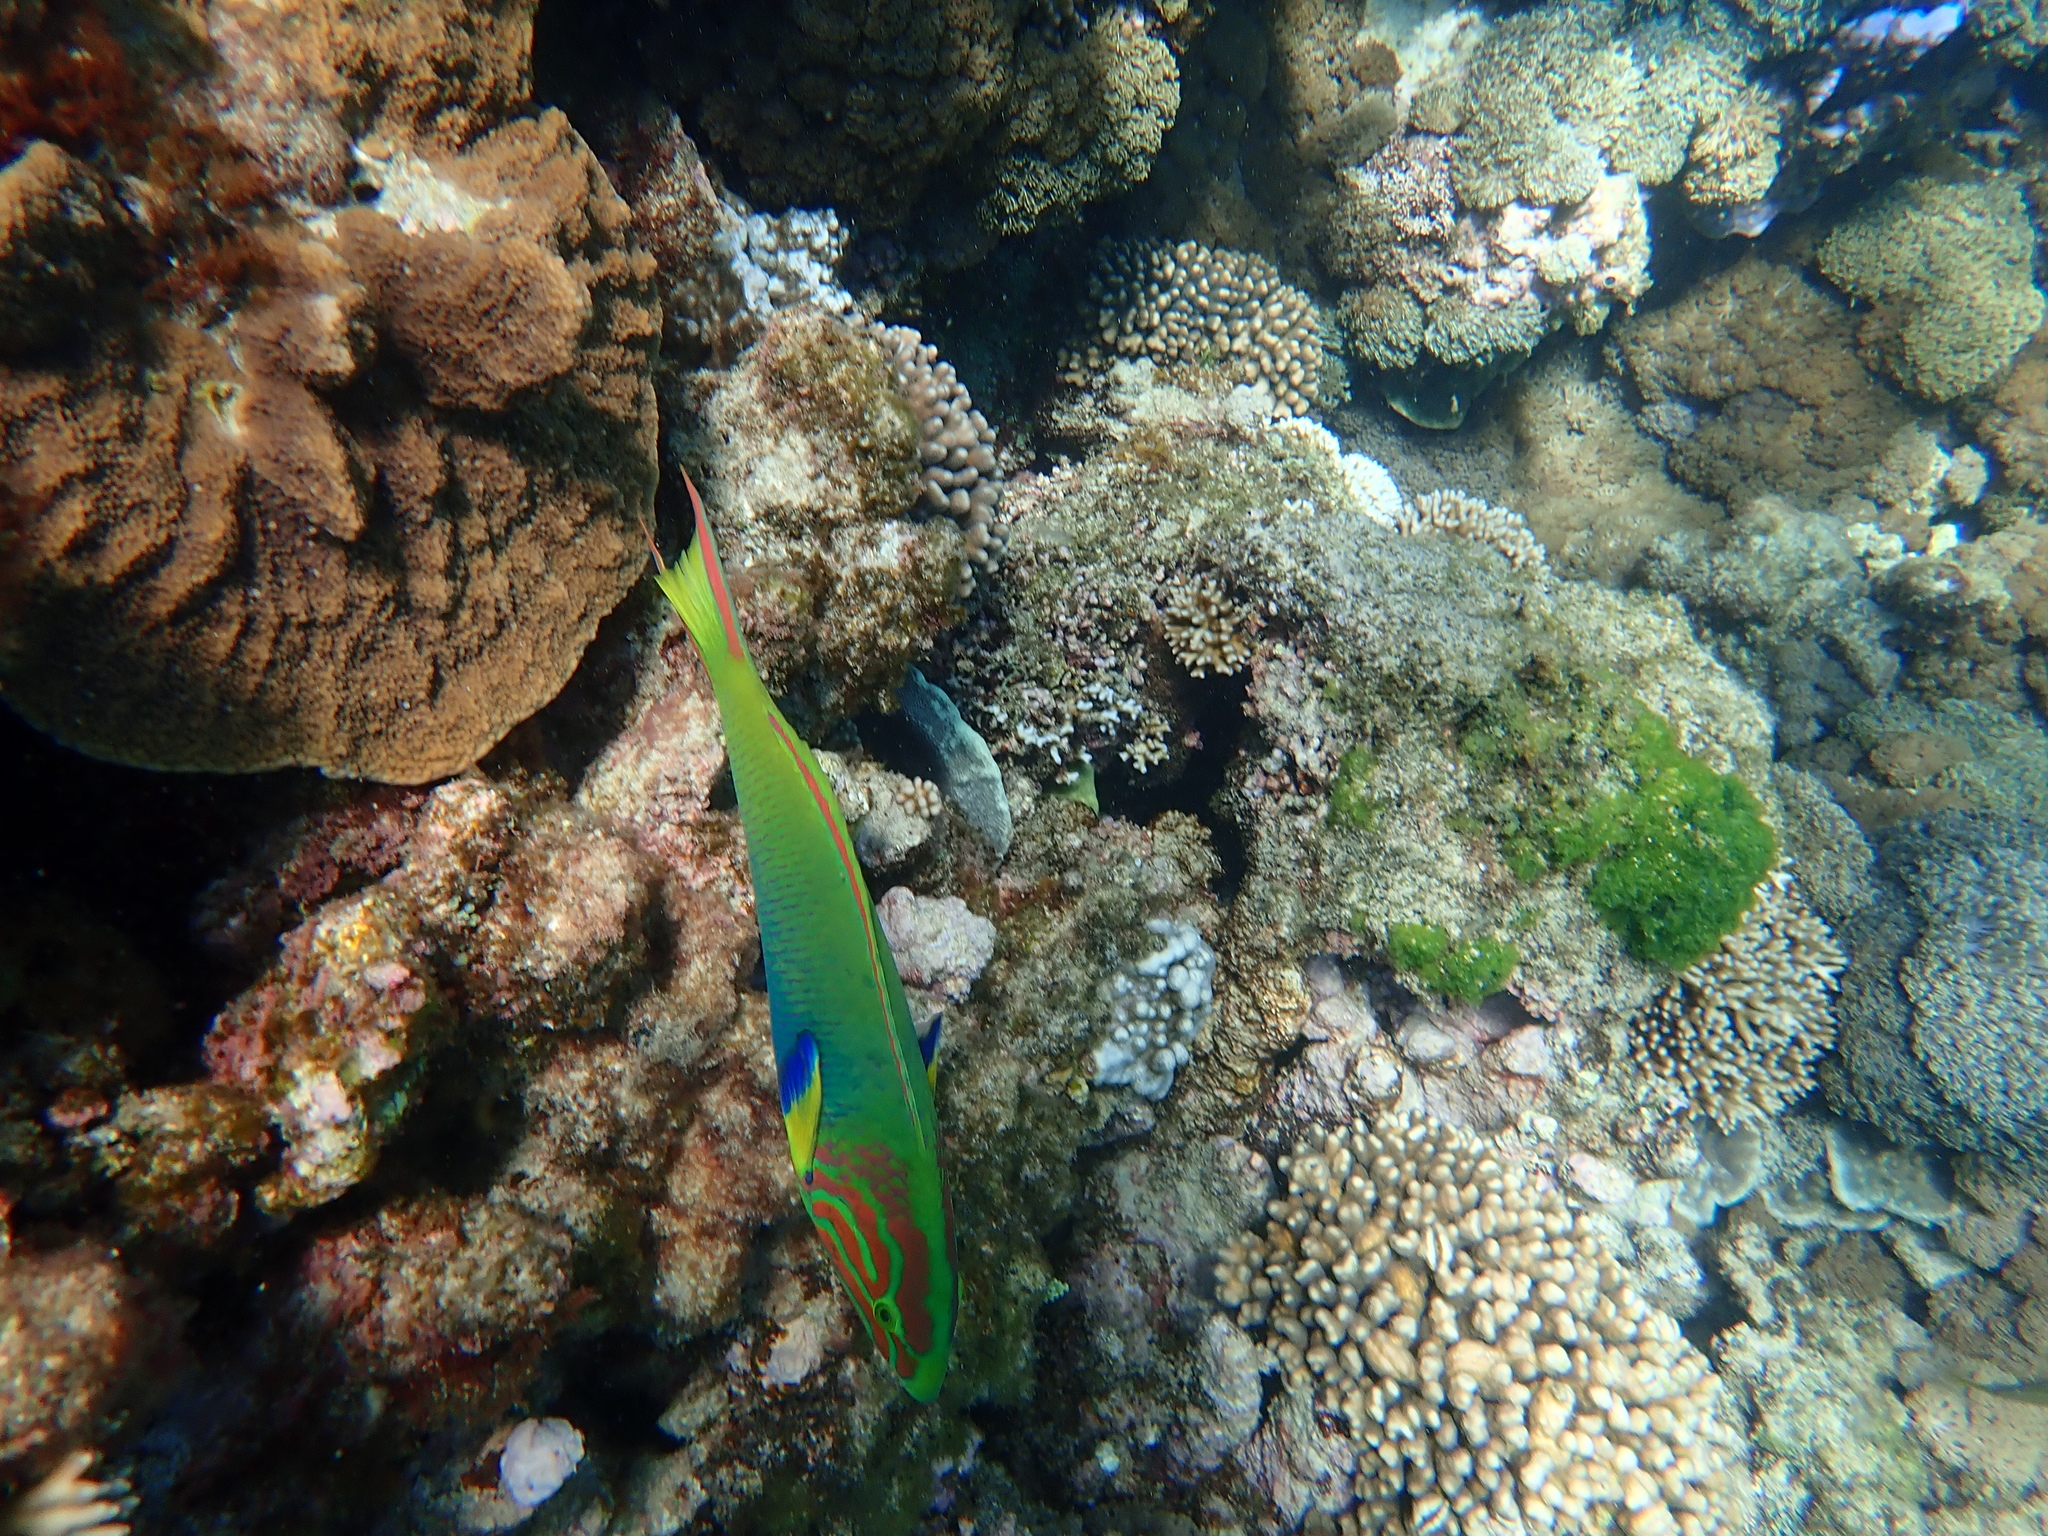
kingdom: Animalia
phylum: Chordata
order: Perciformes
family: Labridae
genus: Thalassoma
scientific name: Thalassoma lutescens
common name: Green moon wrasse
